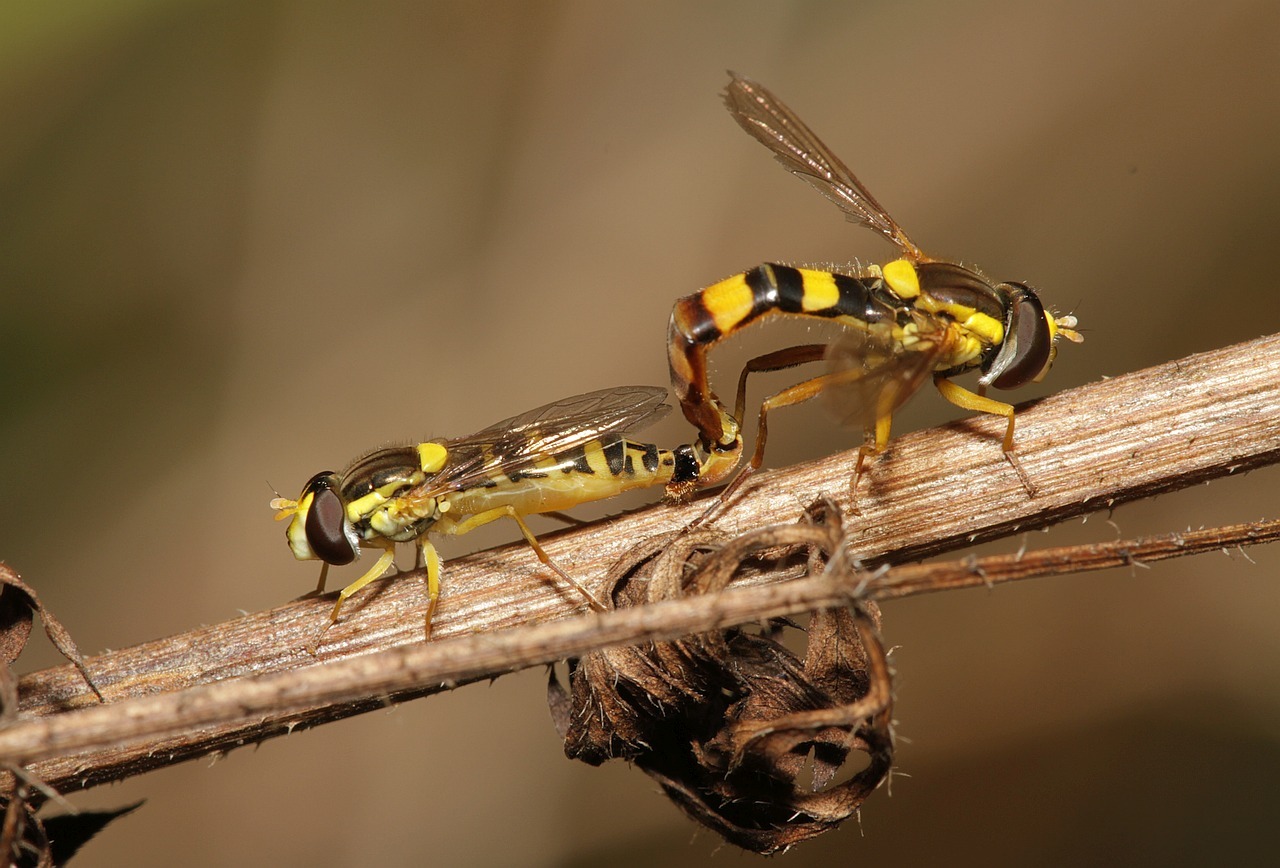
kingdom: Animalia
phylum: Arthropoda
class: Insecta
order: Diptera
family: Syrphidae
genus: Sphaerophoria
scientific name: Sphaerophoria scripta
